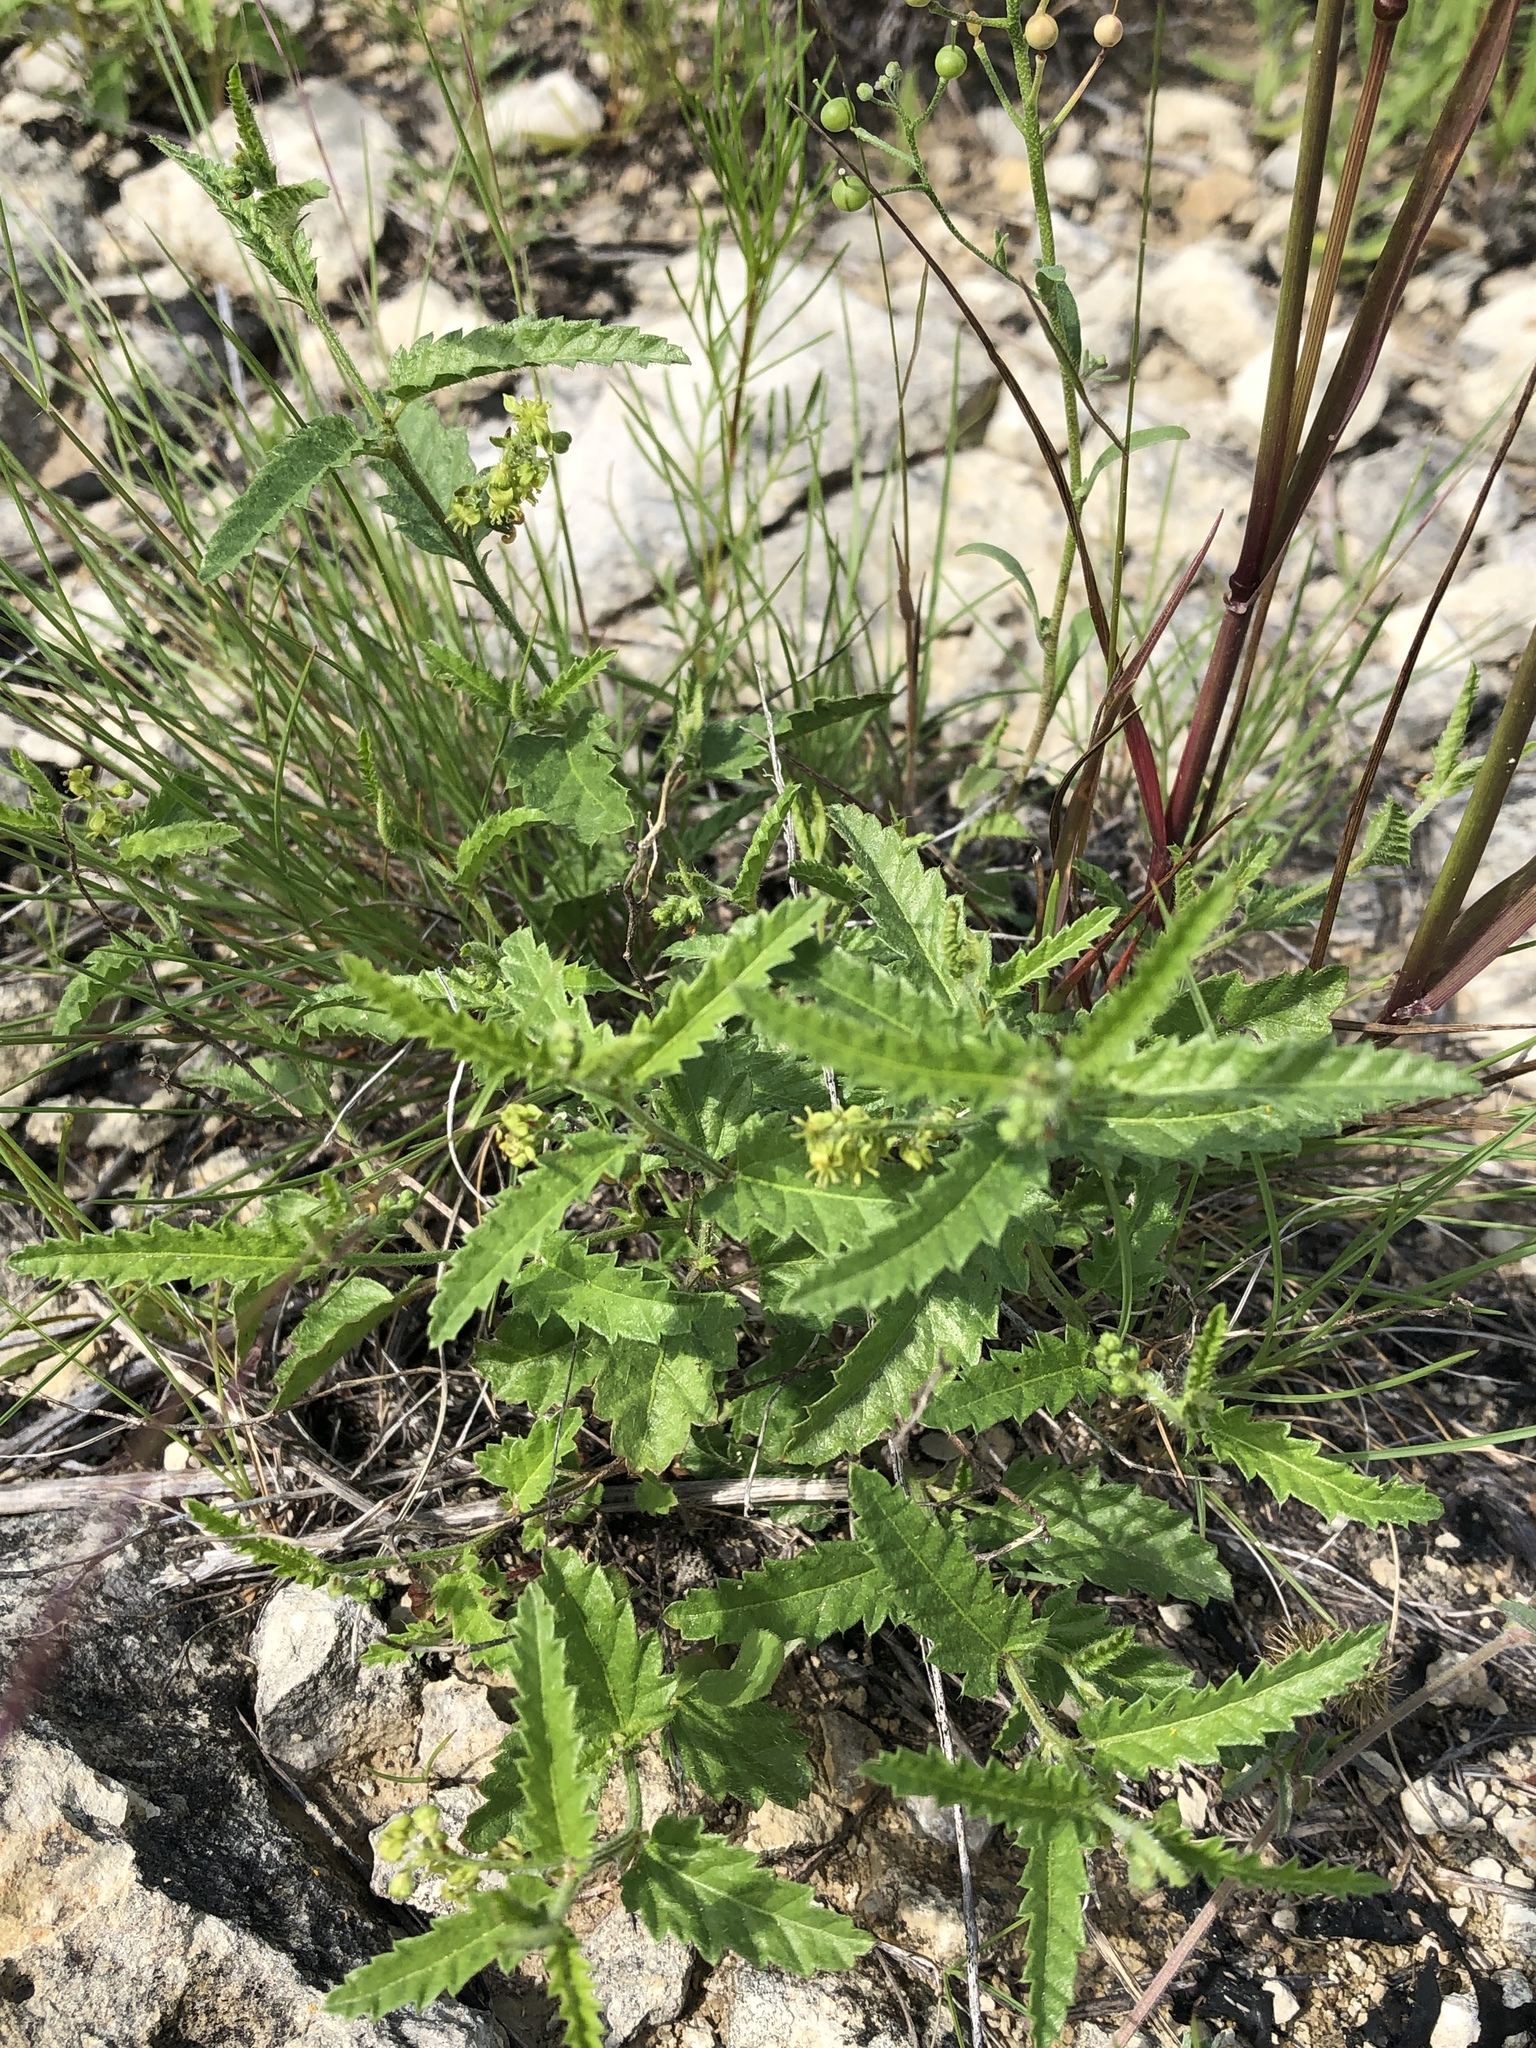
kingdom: Plantae
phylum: Tracheophyta
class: Magnoliopsida
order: Malpighiales
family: Euphorbiaceae
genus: Tragia
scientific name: Tragia ramosa
